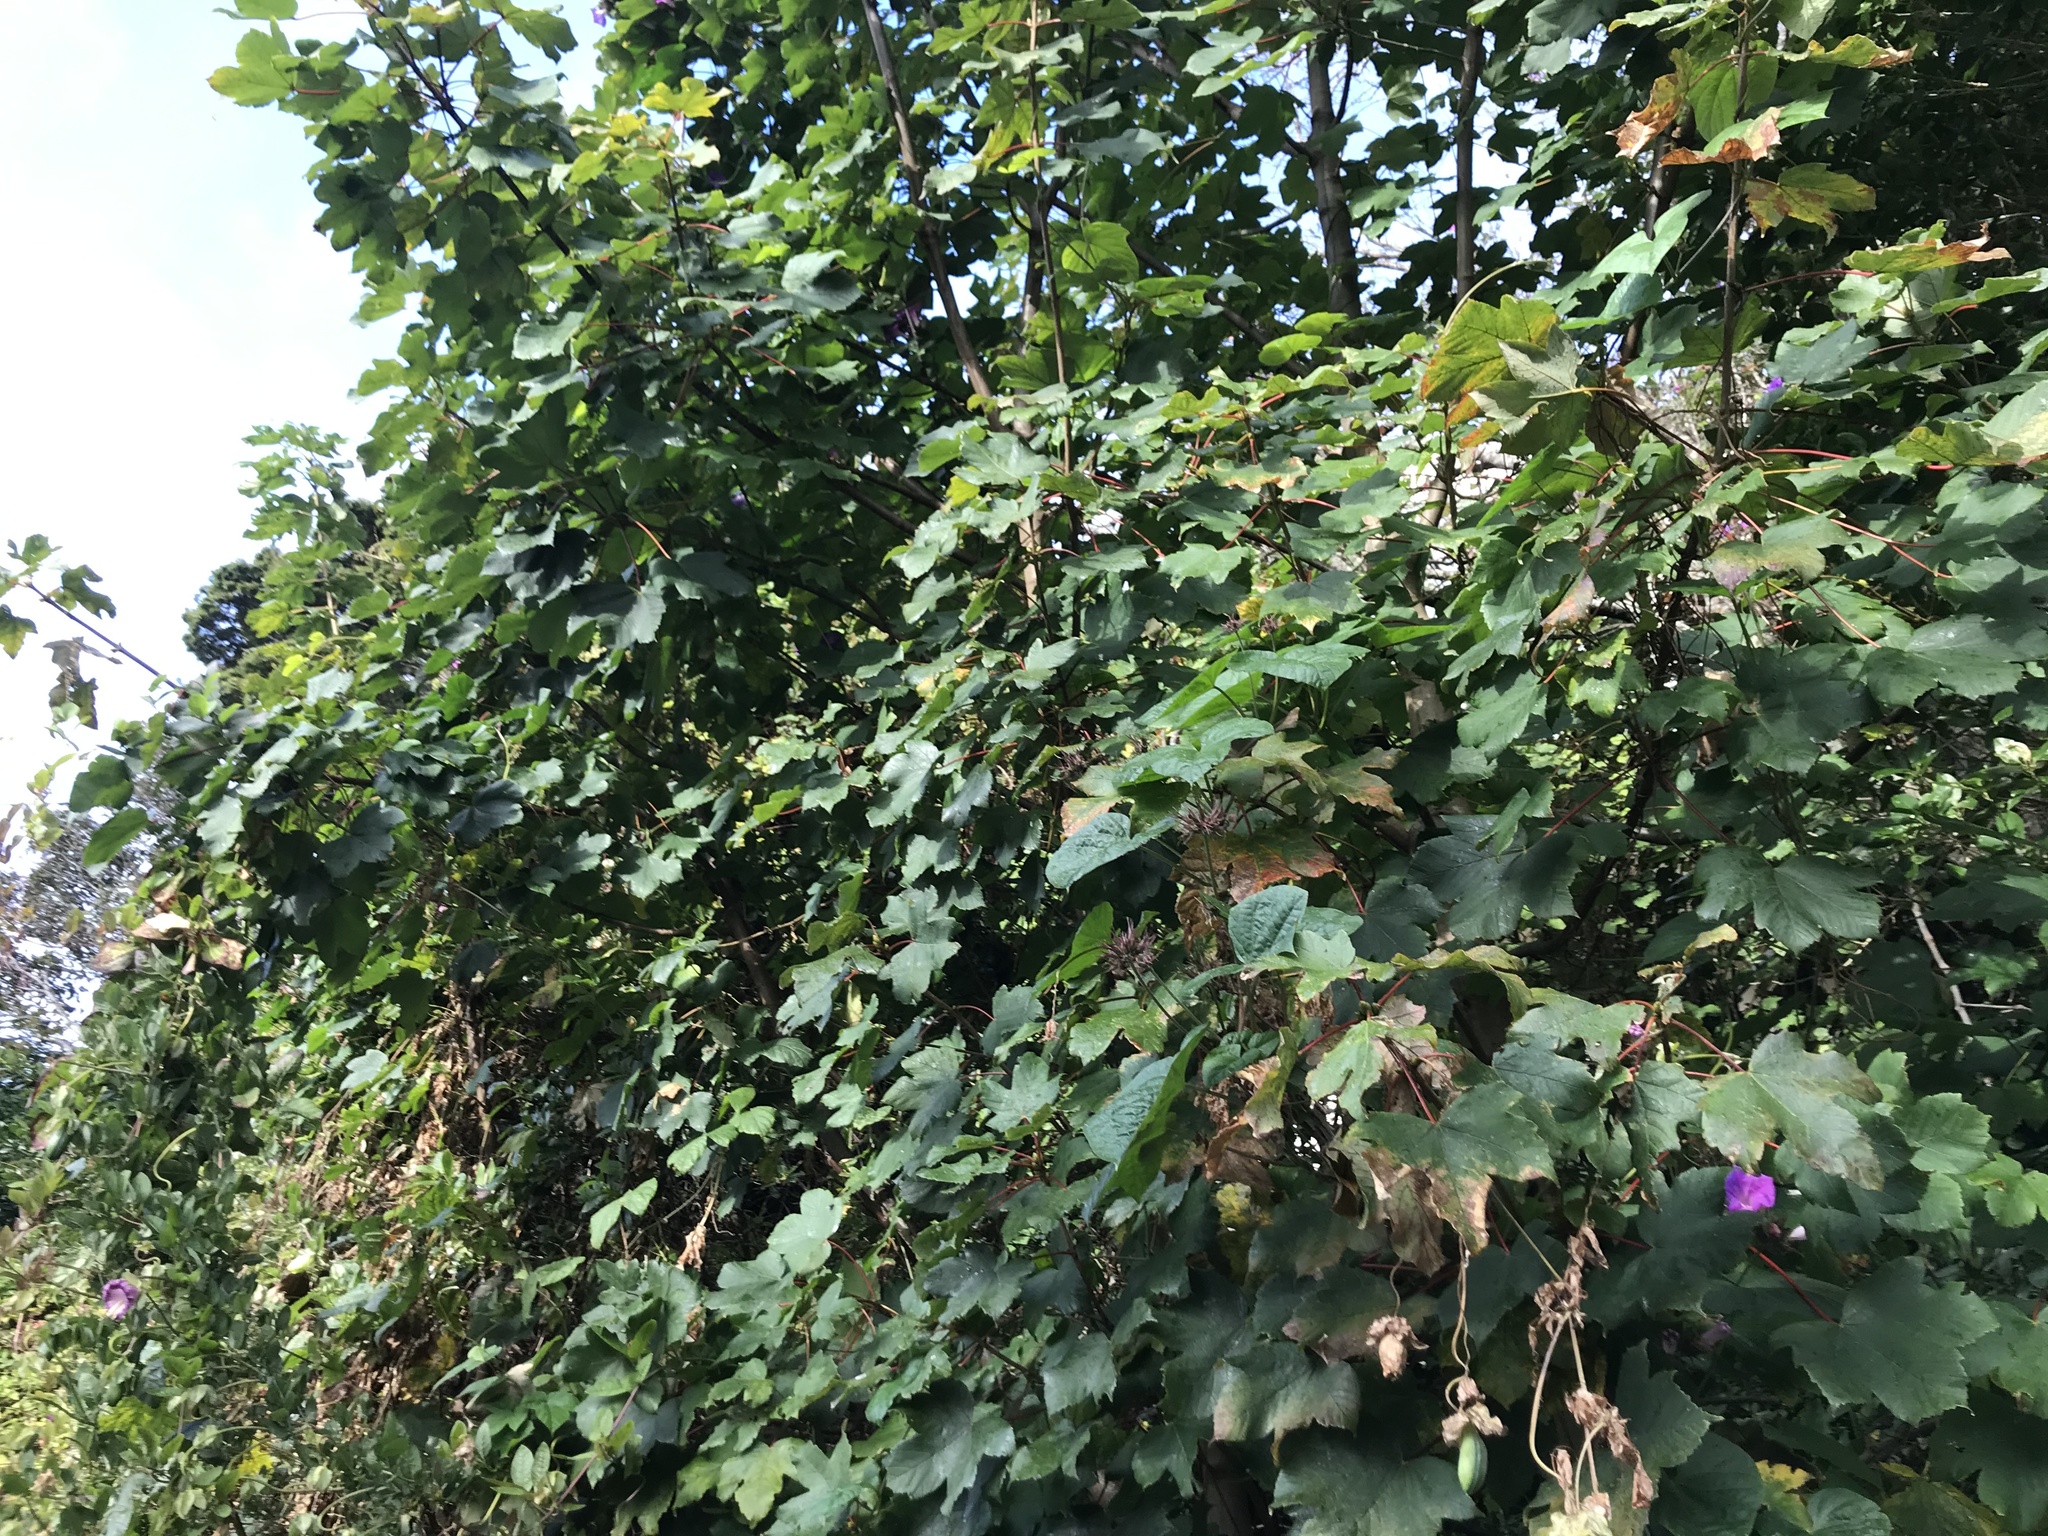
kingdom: Plantae
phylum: Tracheophyta
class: Magnoliopsida
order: Sapindales
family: Sapindaceae
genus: Acer
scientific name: Acer pseudoplatanus
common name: Sycamore
